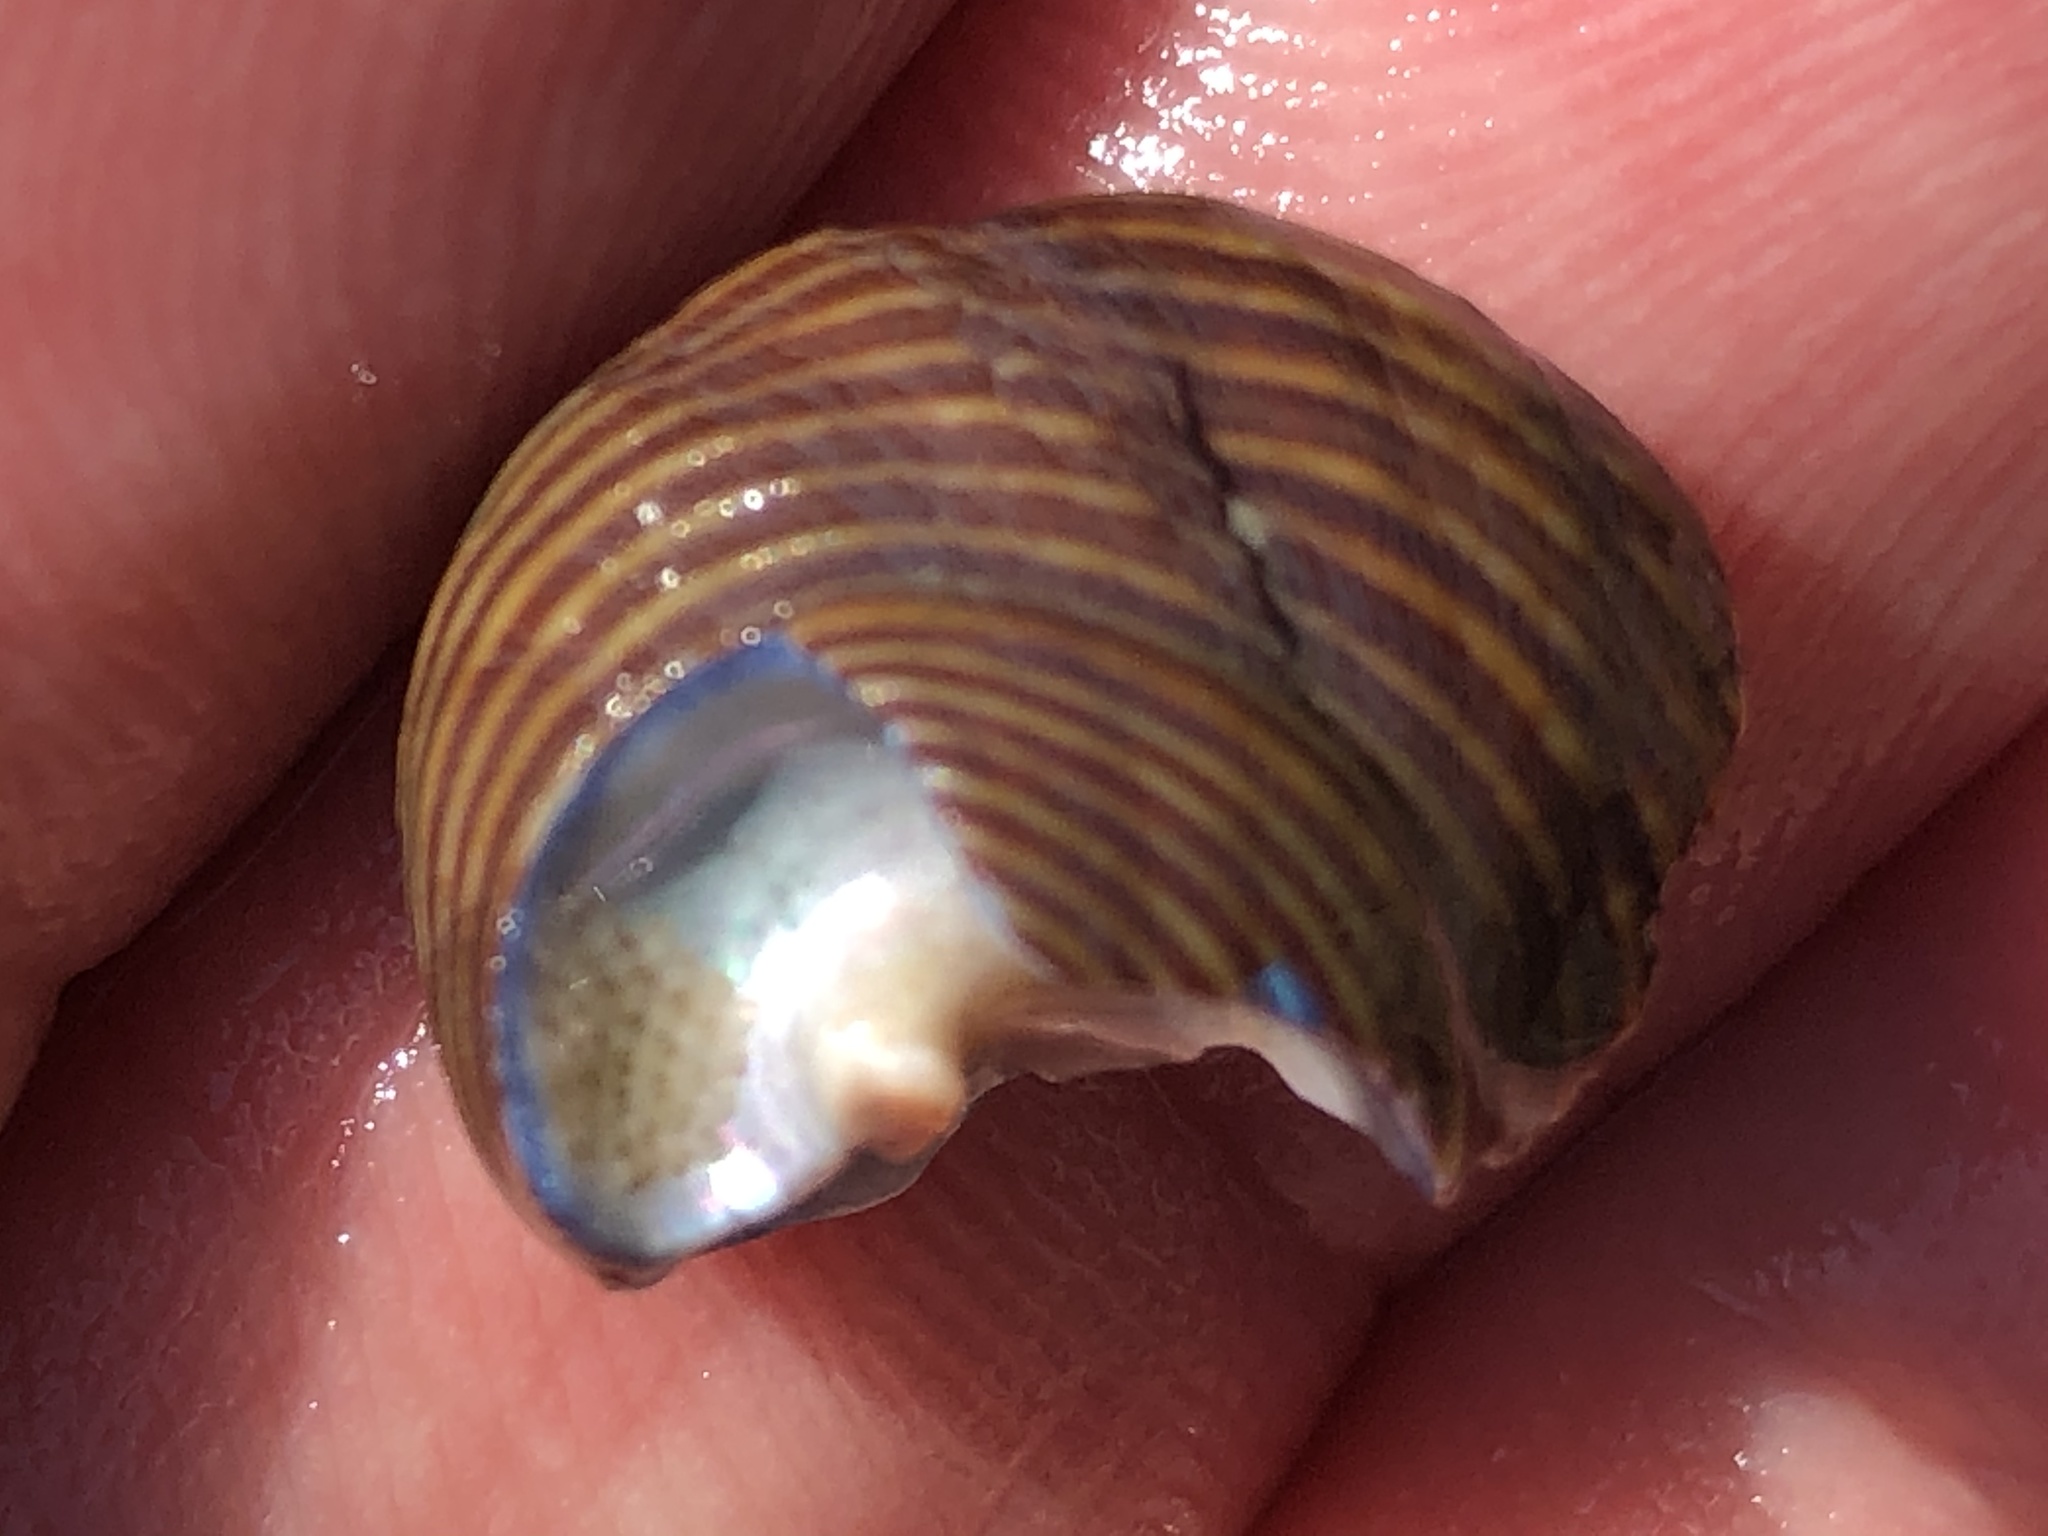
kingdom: Animalia
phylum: Mollusca
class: Gastropoda
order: Trochida
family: Calliostomatidae
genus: Calliostoma
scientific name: Calliostoma ligatum
